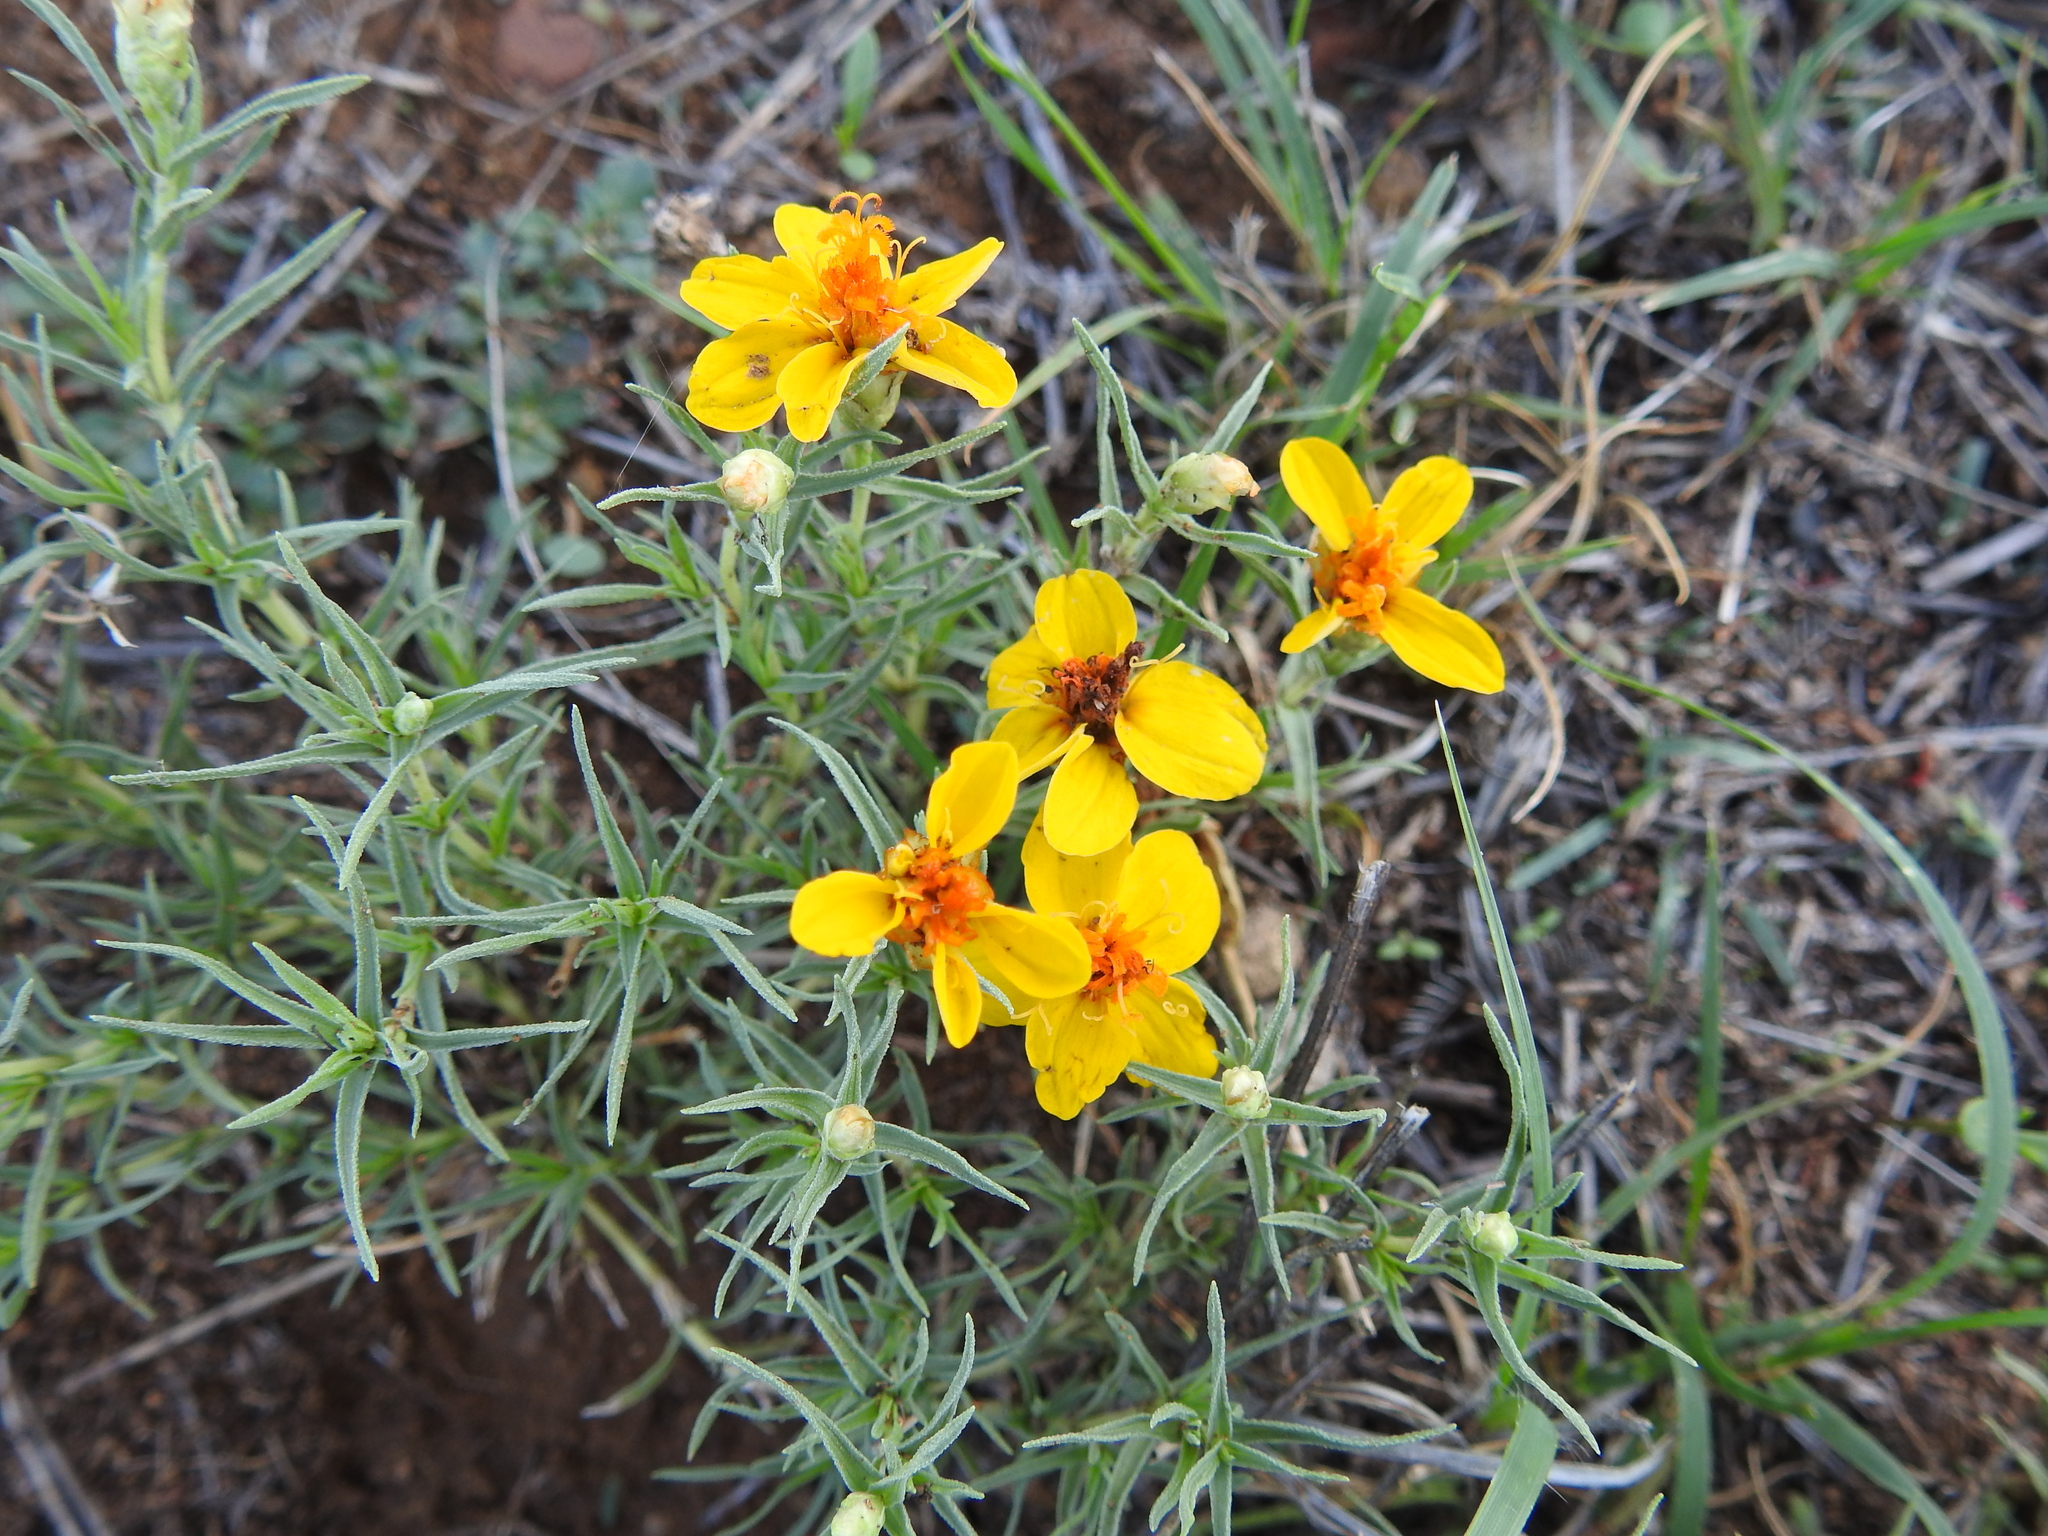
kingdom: Plantae
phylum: Tracheophyta
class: Magnoliopsida
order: Asterales
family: Asteraceae
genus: Zinnia
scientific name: Zinnia grandiflora
